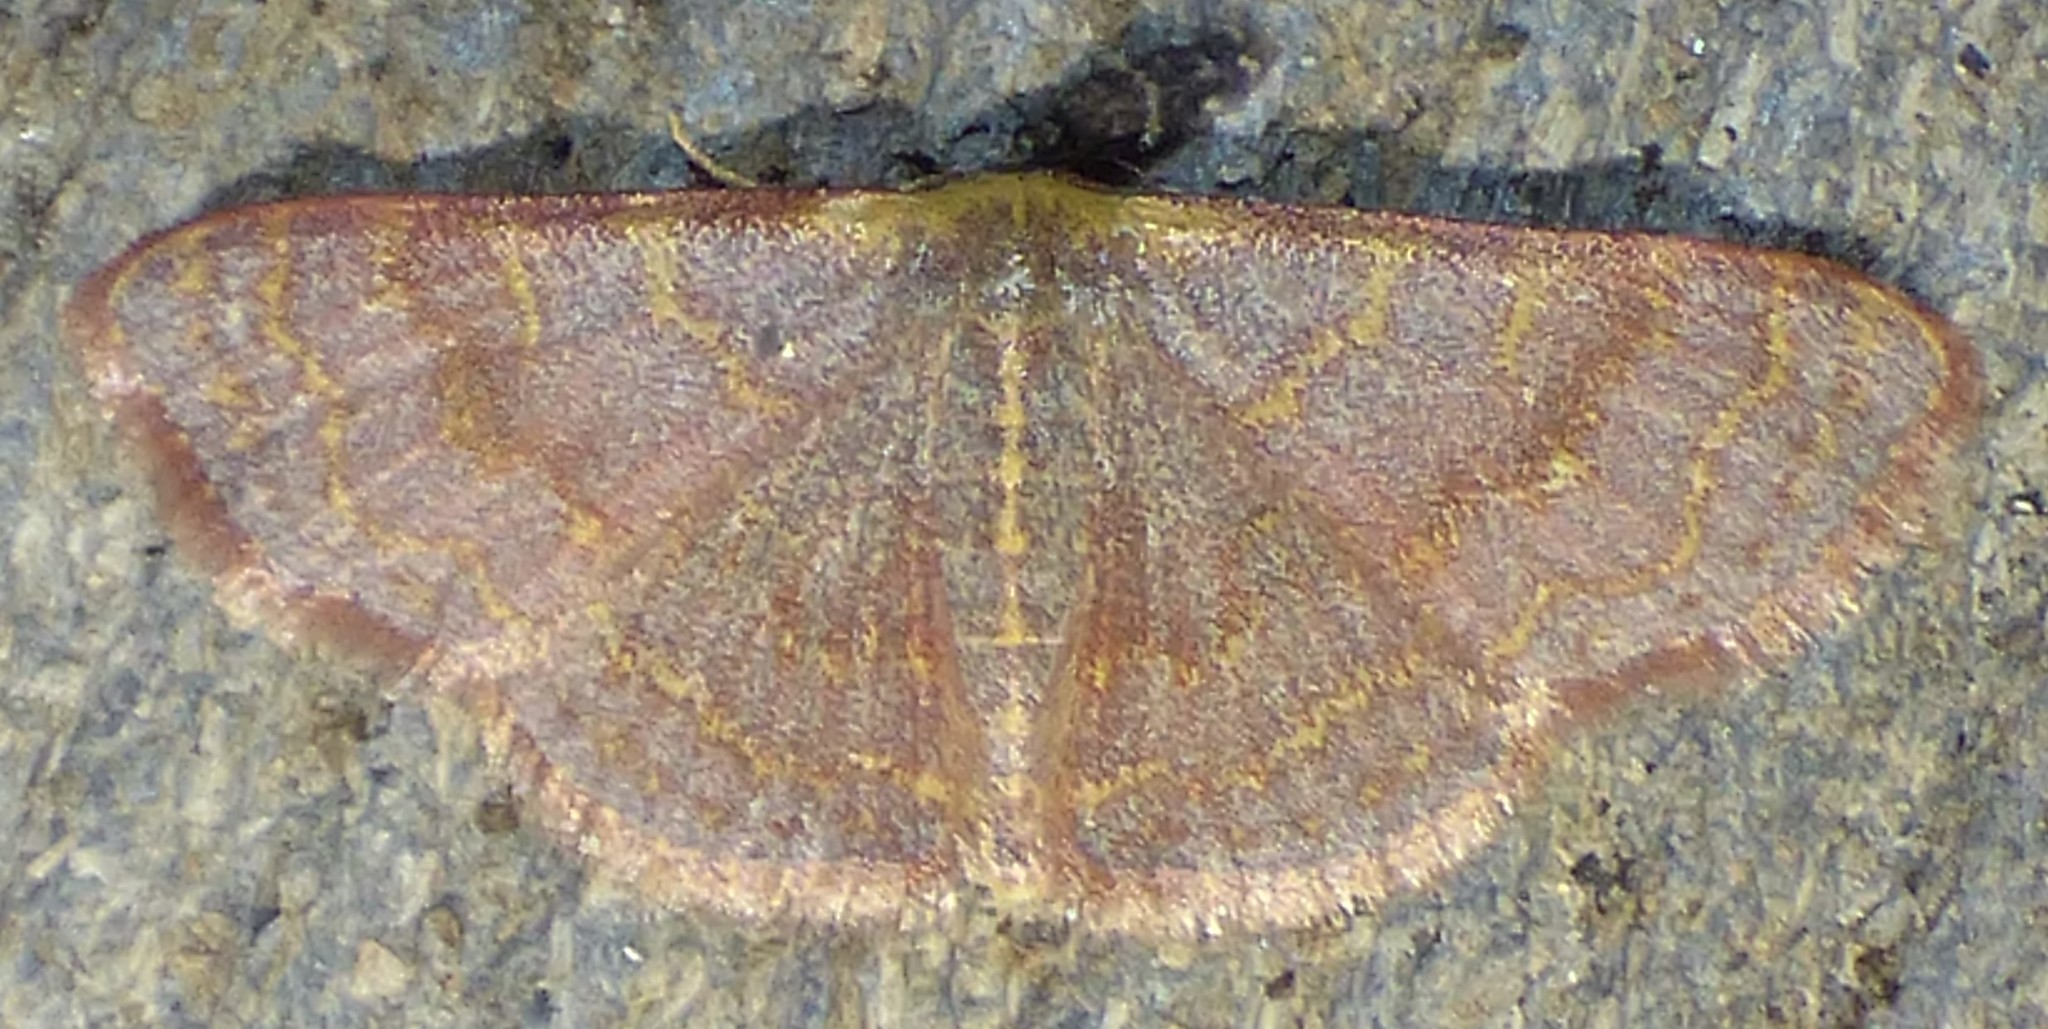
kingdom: Animalia
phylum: Arthropoda
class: Insecta
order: Lepidoptera
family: Geometridae
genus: Leptostales
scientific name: Leptostales pannaria
